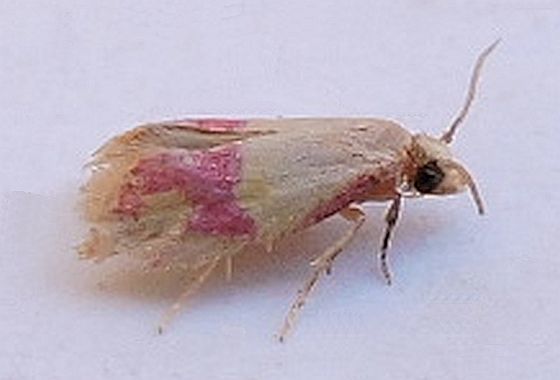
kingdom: Animalia
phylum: Arthropoda
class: Insecta
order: Lepidoptera
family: Tortricidae
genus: Conchylis
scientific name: Conchylis oenotherana
